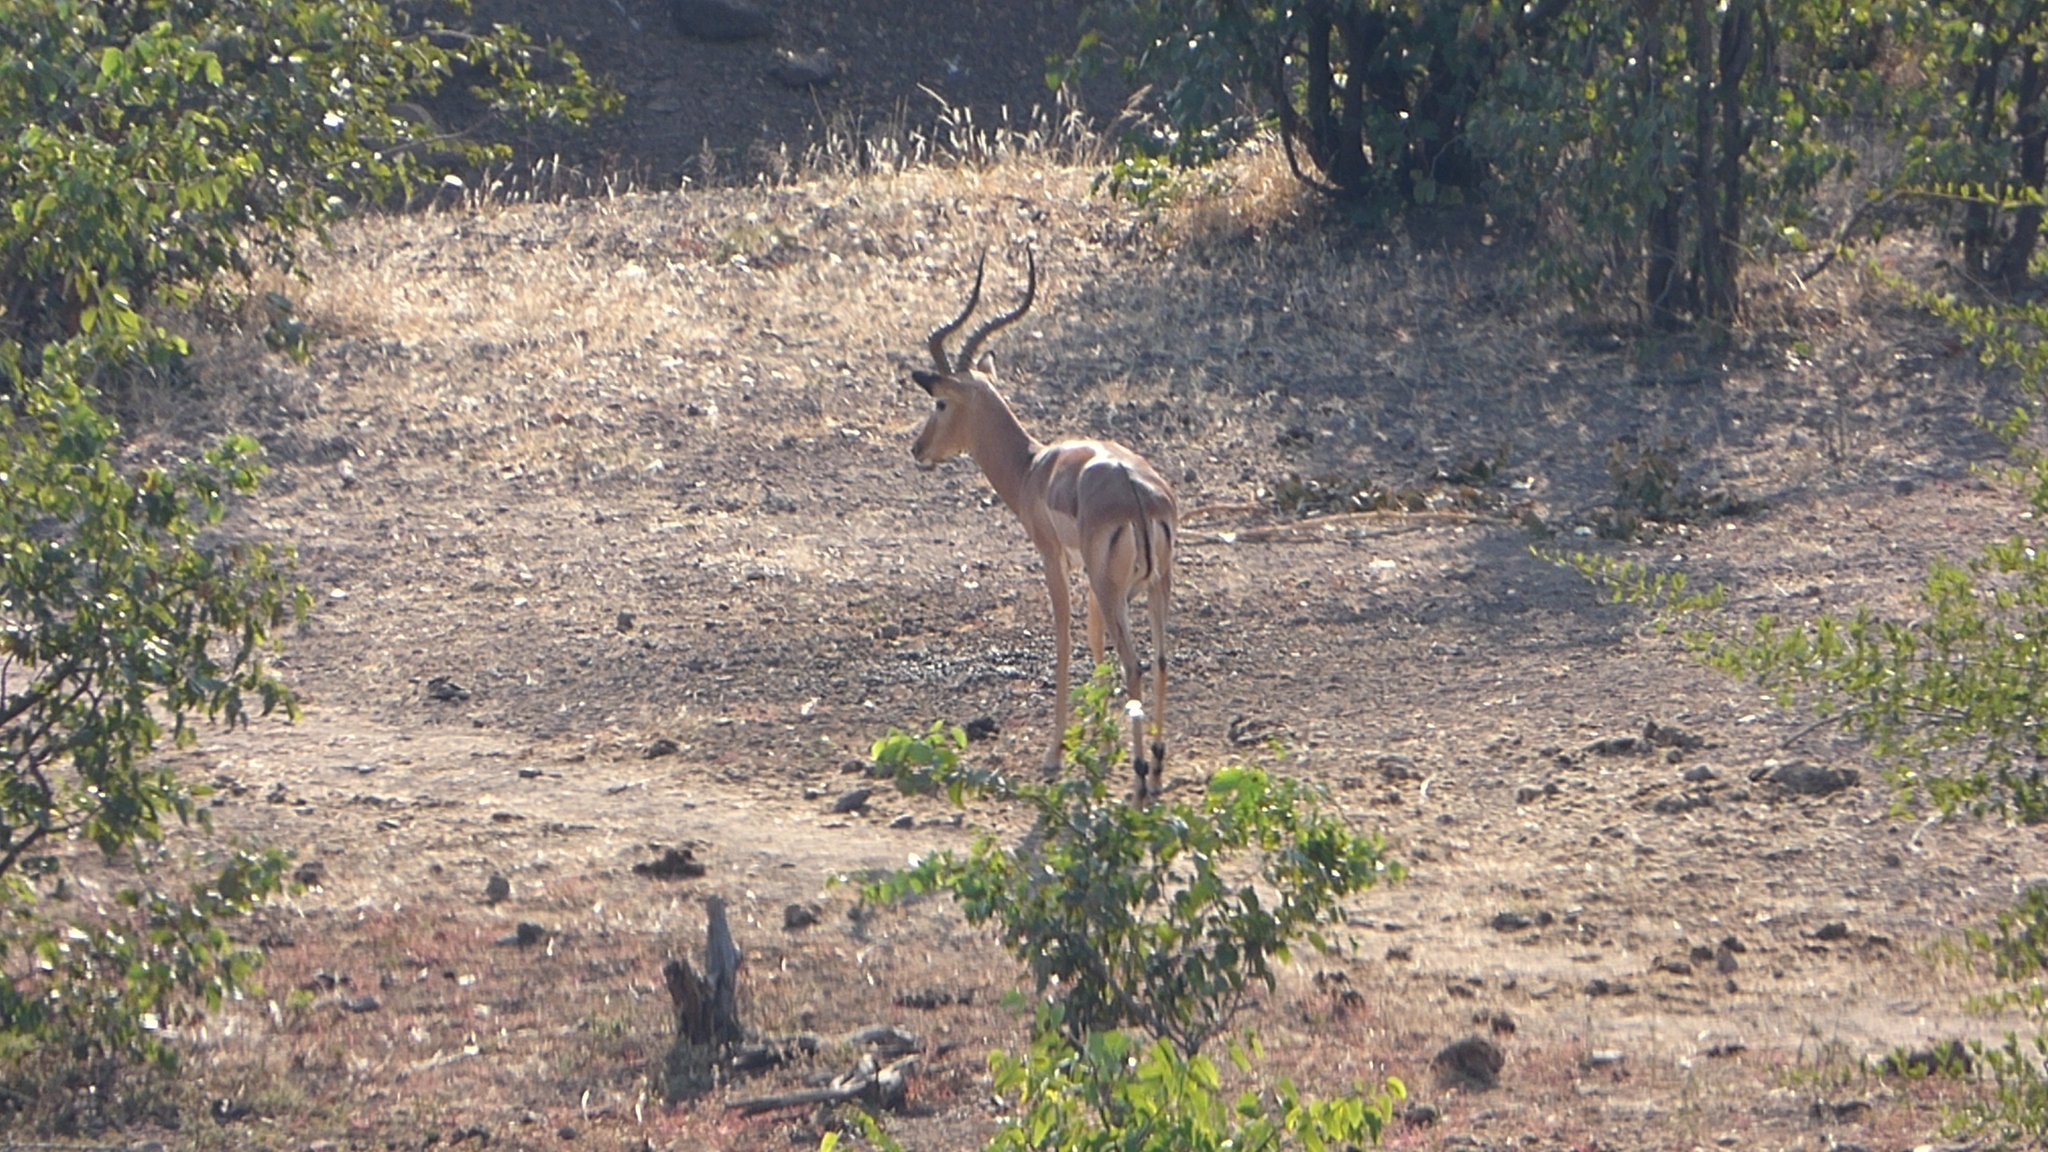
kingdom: Animalia
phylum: Chordata
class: Mammalia
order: Artiodactyla
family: Bovidae
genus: Aepyceros
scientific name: Aepyceros melampus
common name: Impala
